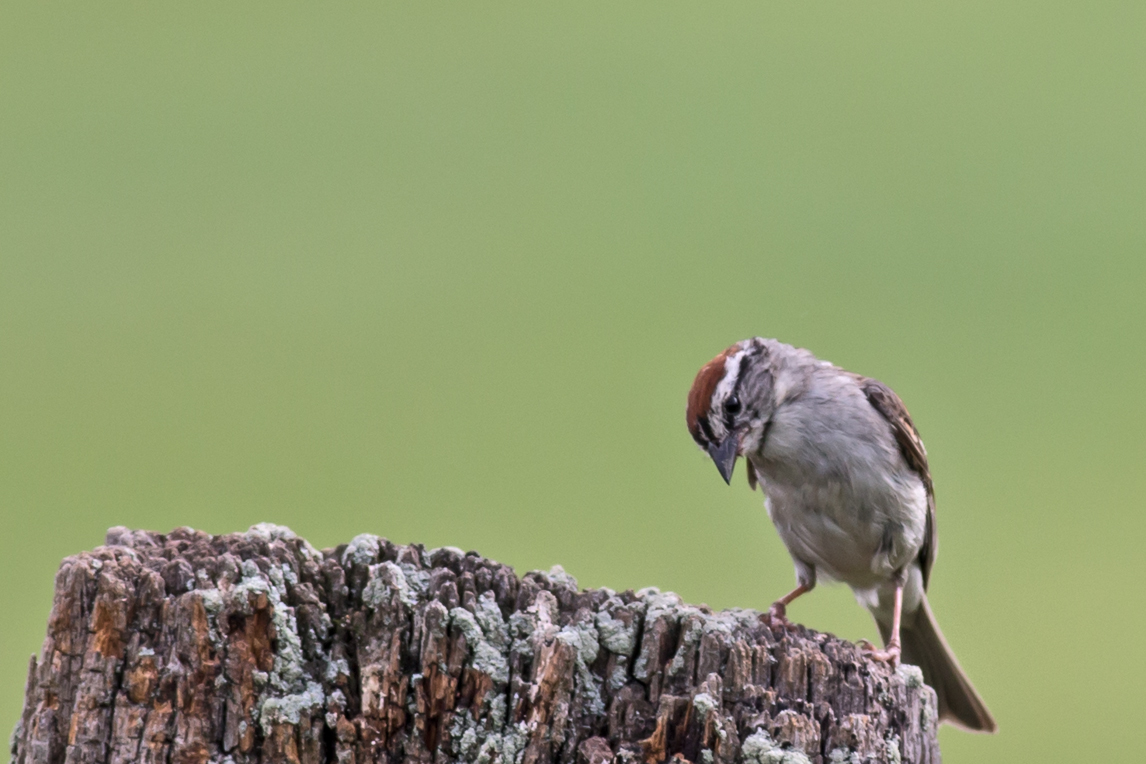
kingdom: Animalia
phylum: Chordata
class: Aves
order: Passeriformes
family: Passerellidae
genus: Spizella
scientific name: Spizella passerina
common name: Chipping sparrow
